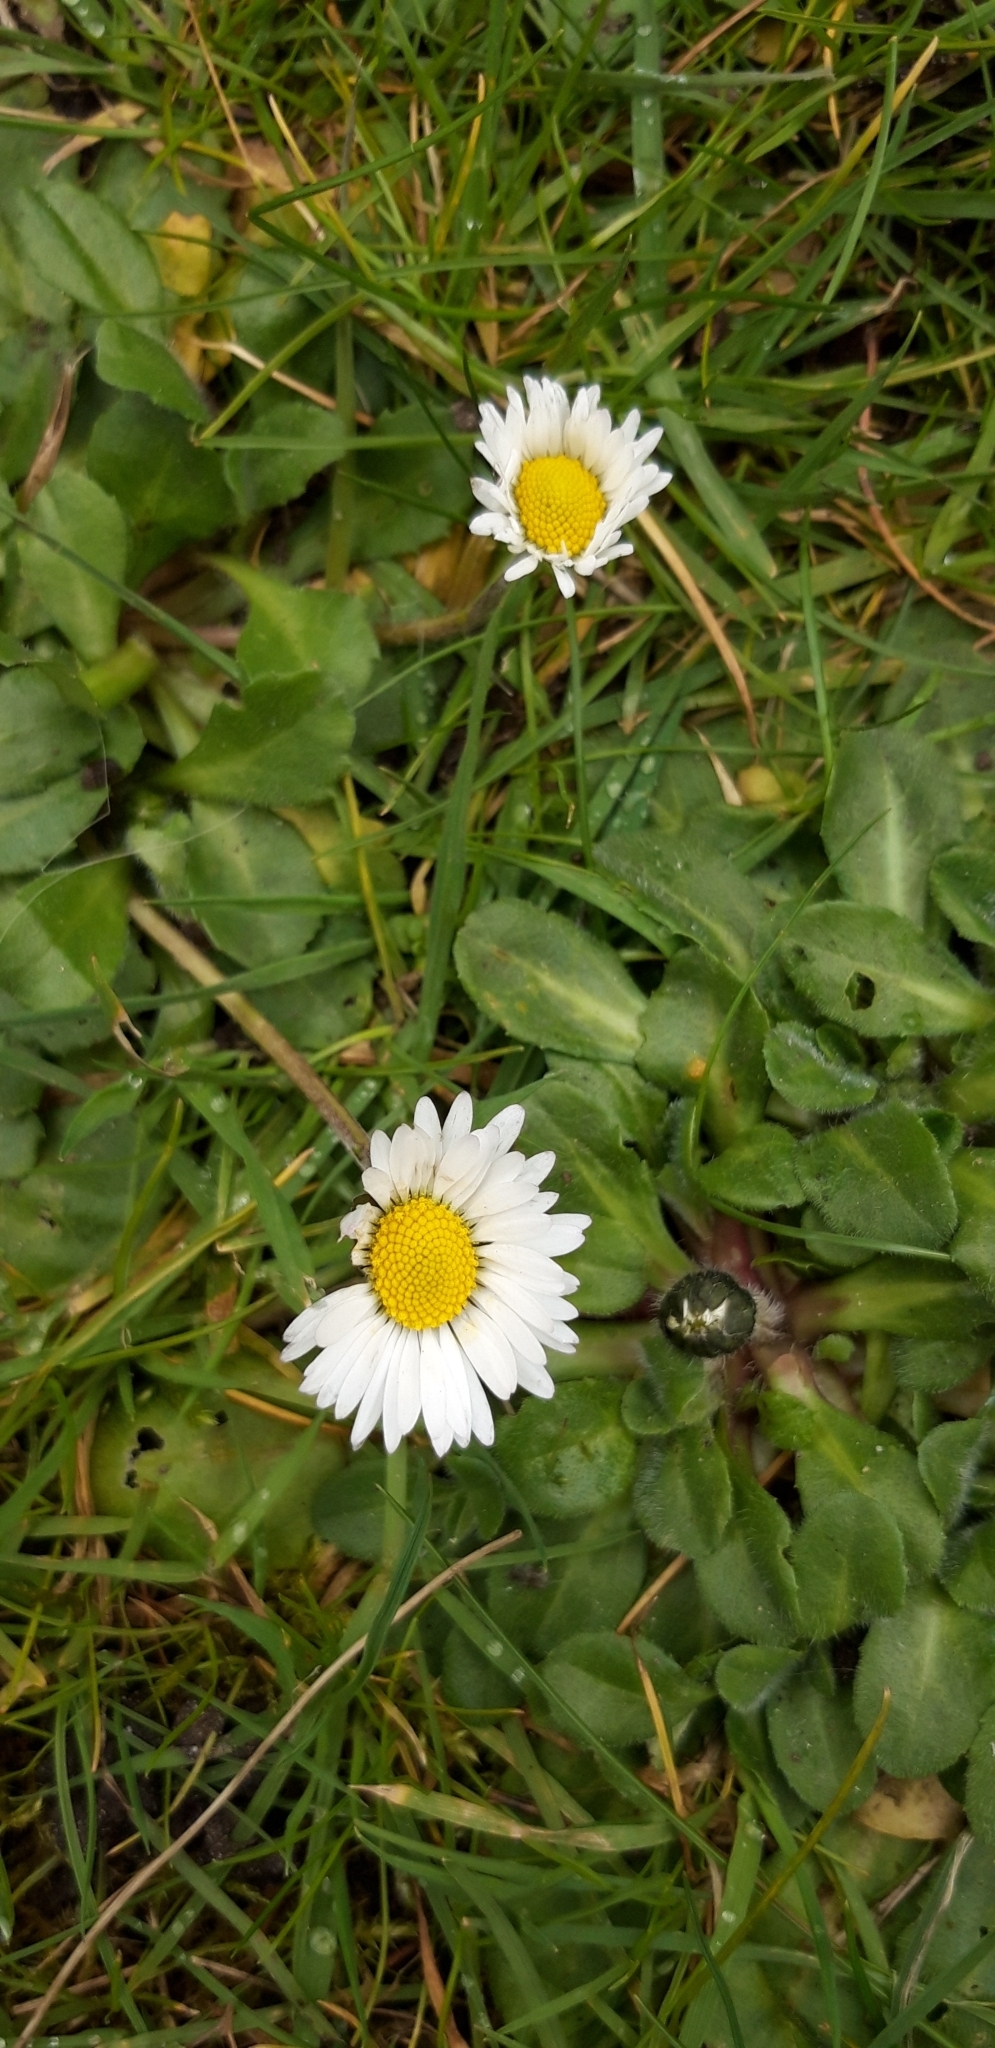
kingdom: Plantae
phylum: Tracheophyta
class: Magnoliopsida
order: Asterales
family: Asteraceae
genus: Bellis
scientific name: Bellis perennis
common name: Lawndaisy
